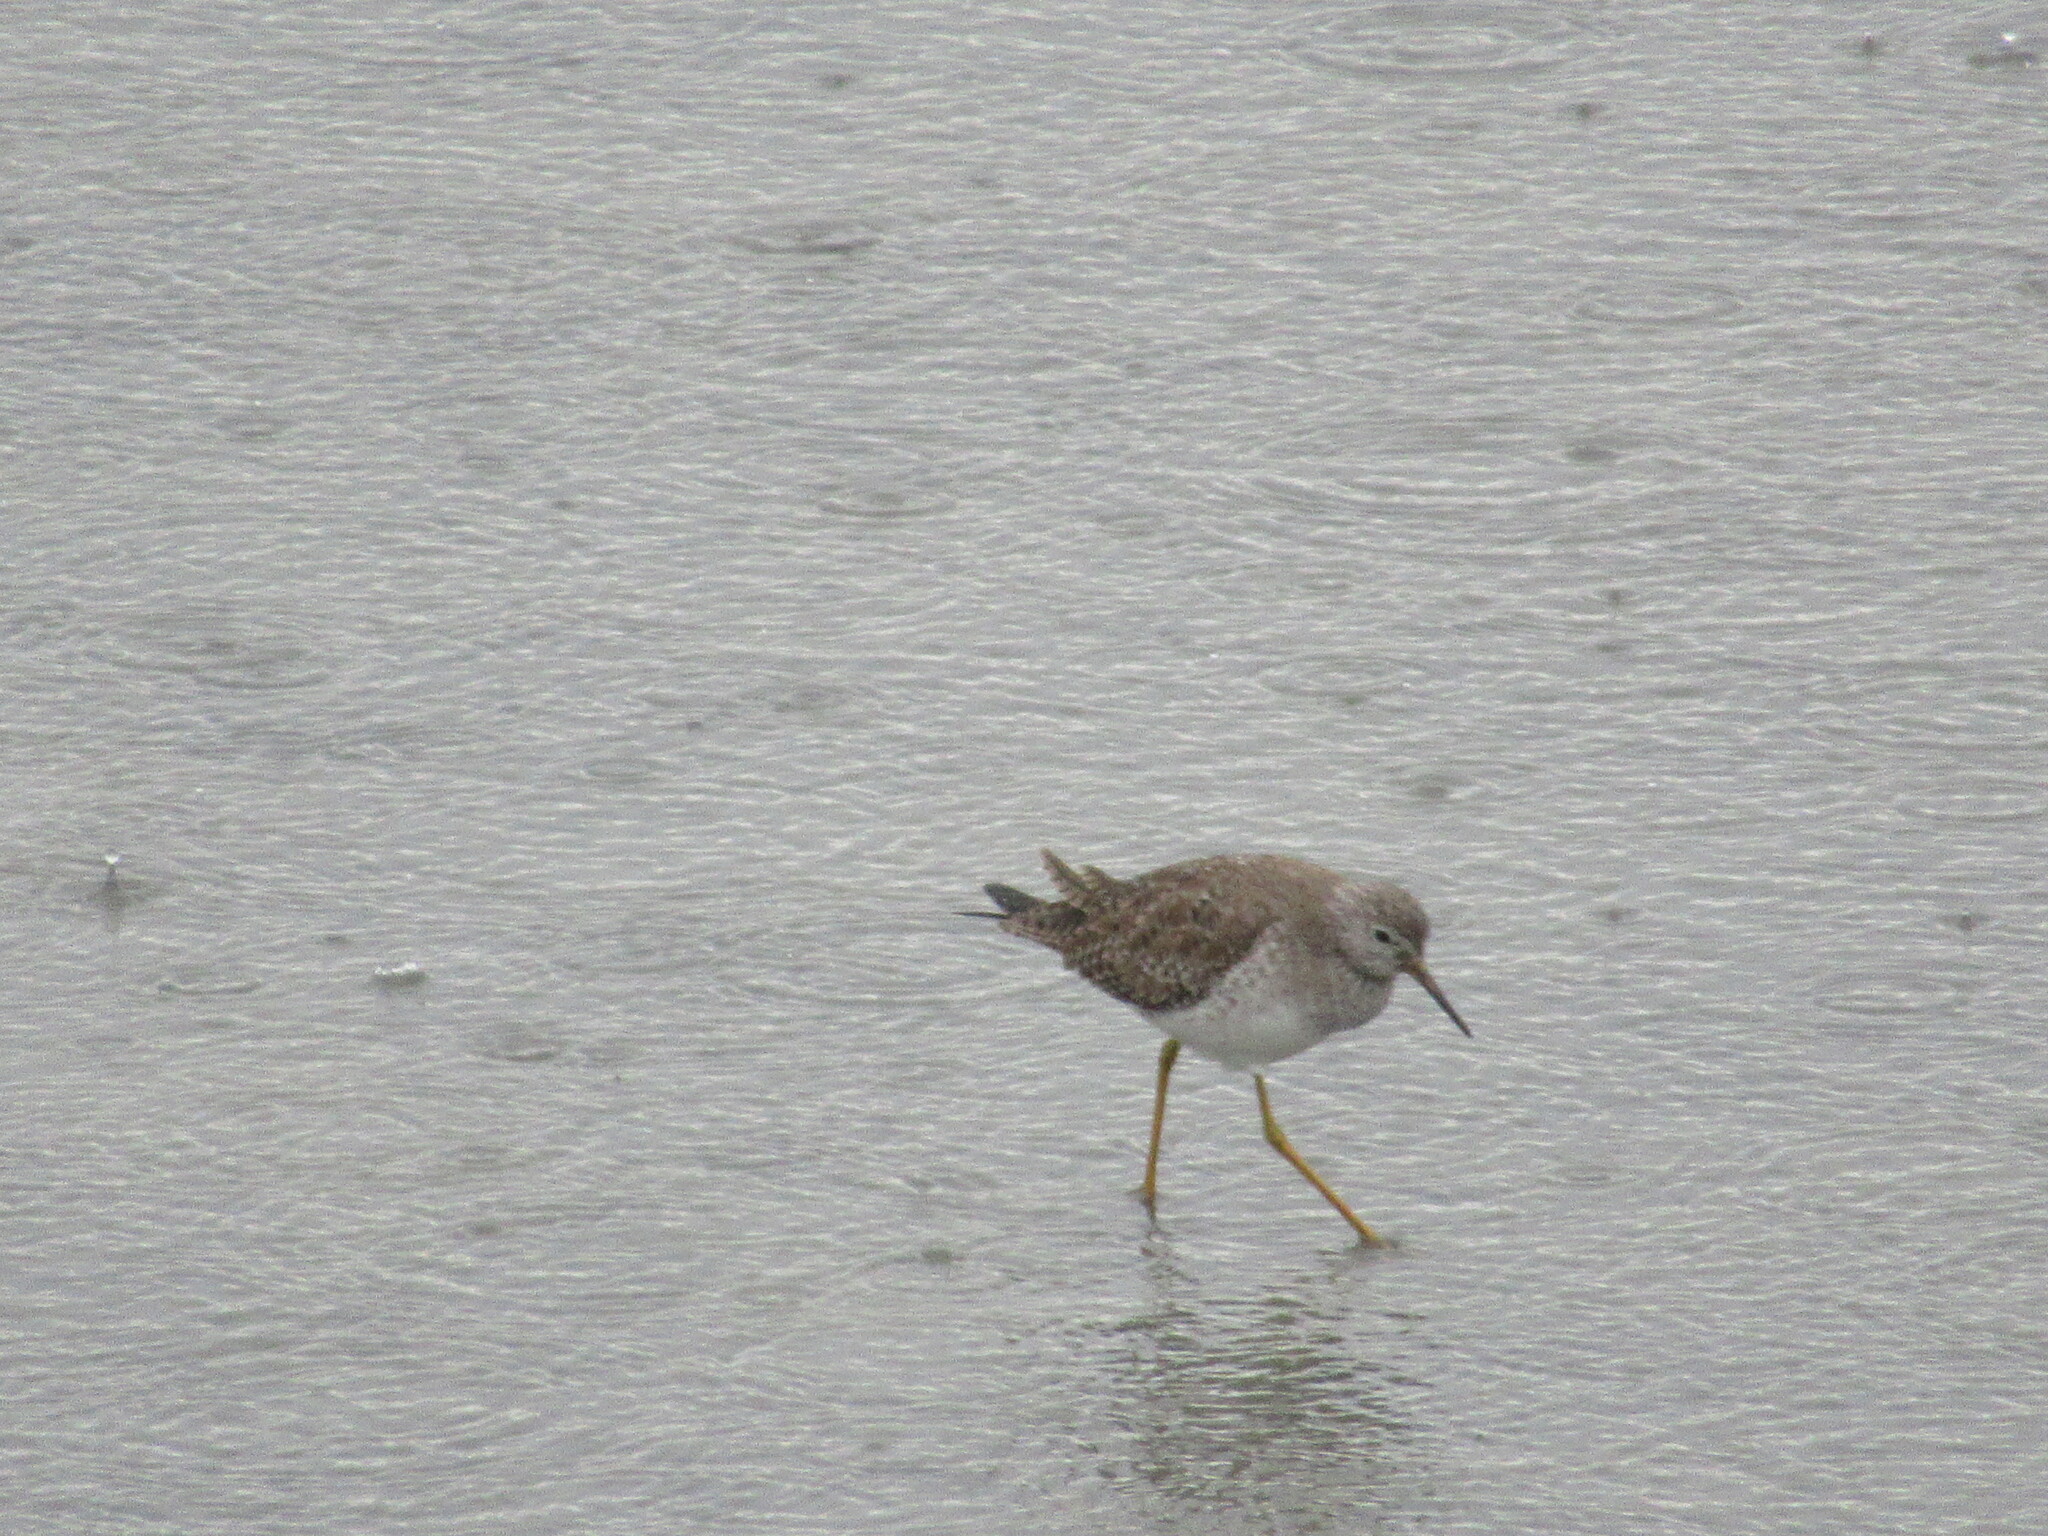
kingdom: Animalia
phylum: Chordata
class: Aves
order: Charadriiformes
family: Scolopacidae
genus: Tringa
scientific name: Tringa flavipes
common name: Lesser yellowlegs
